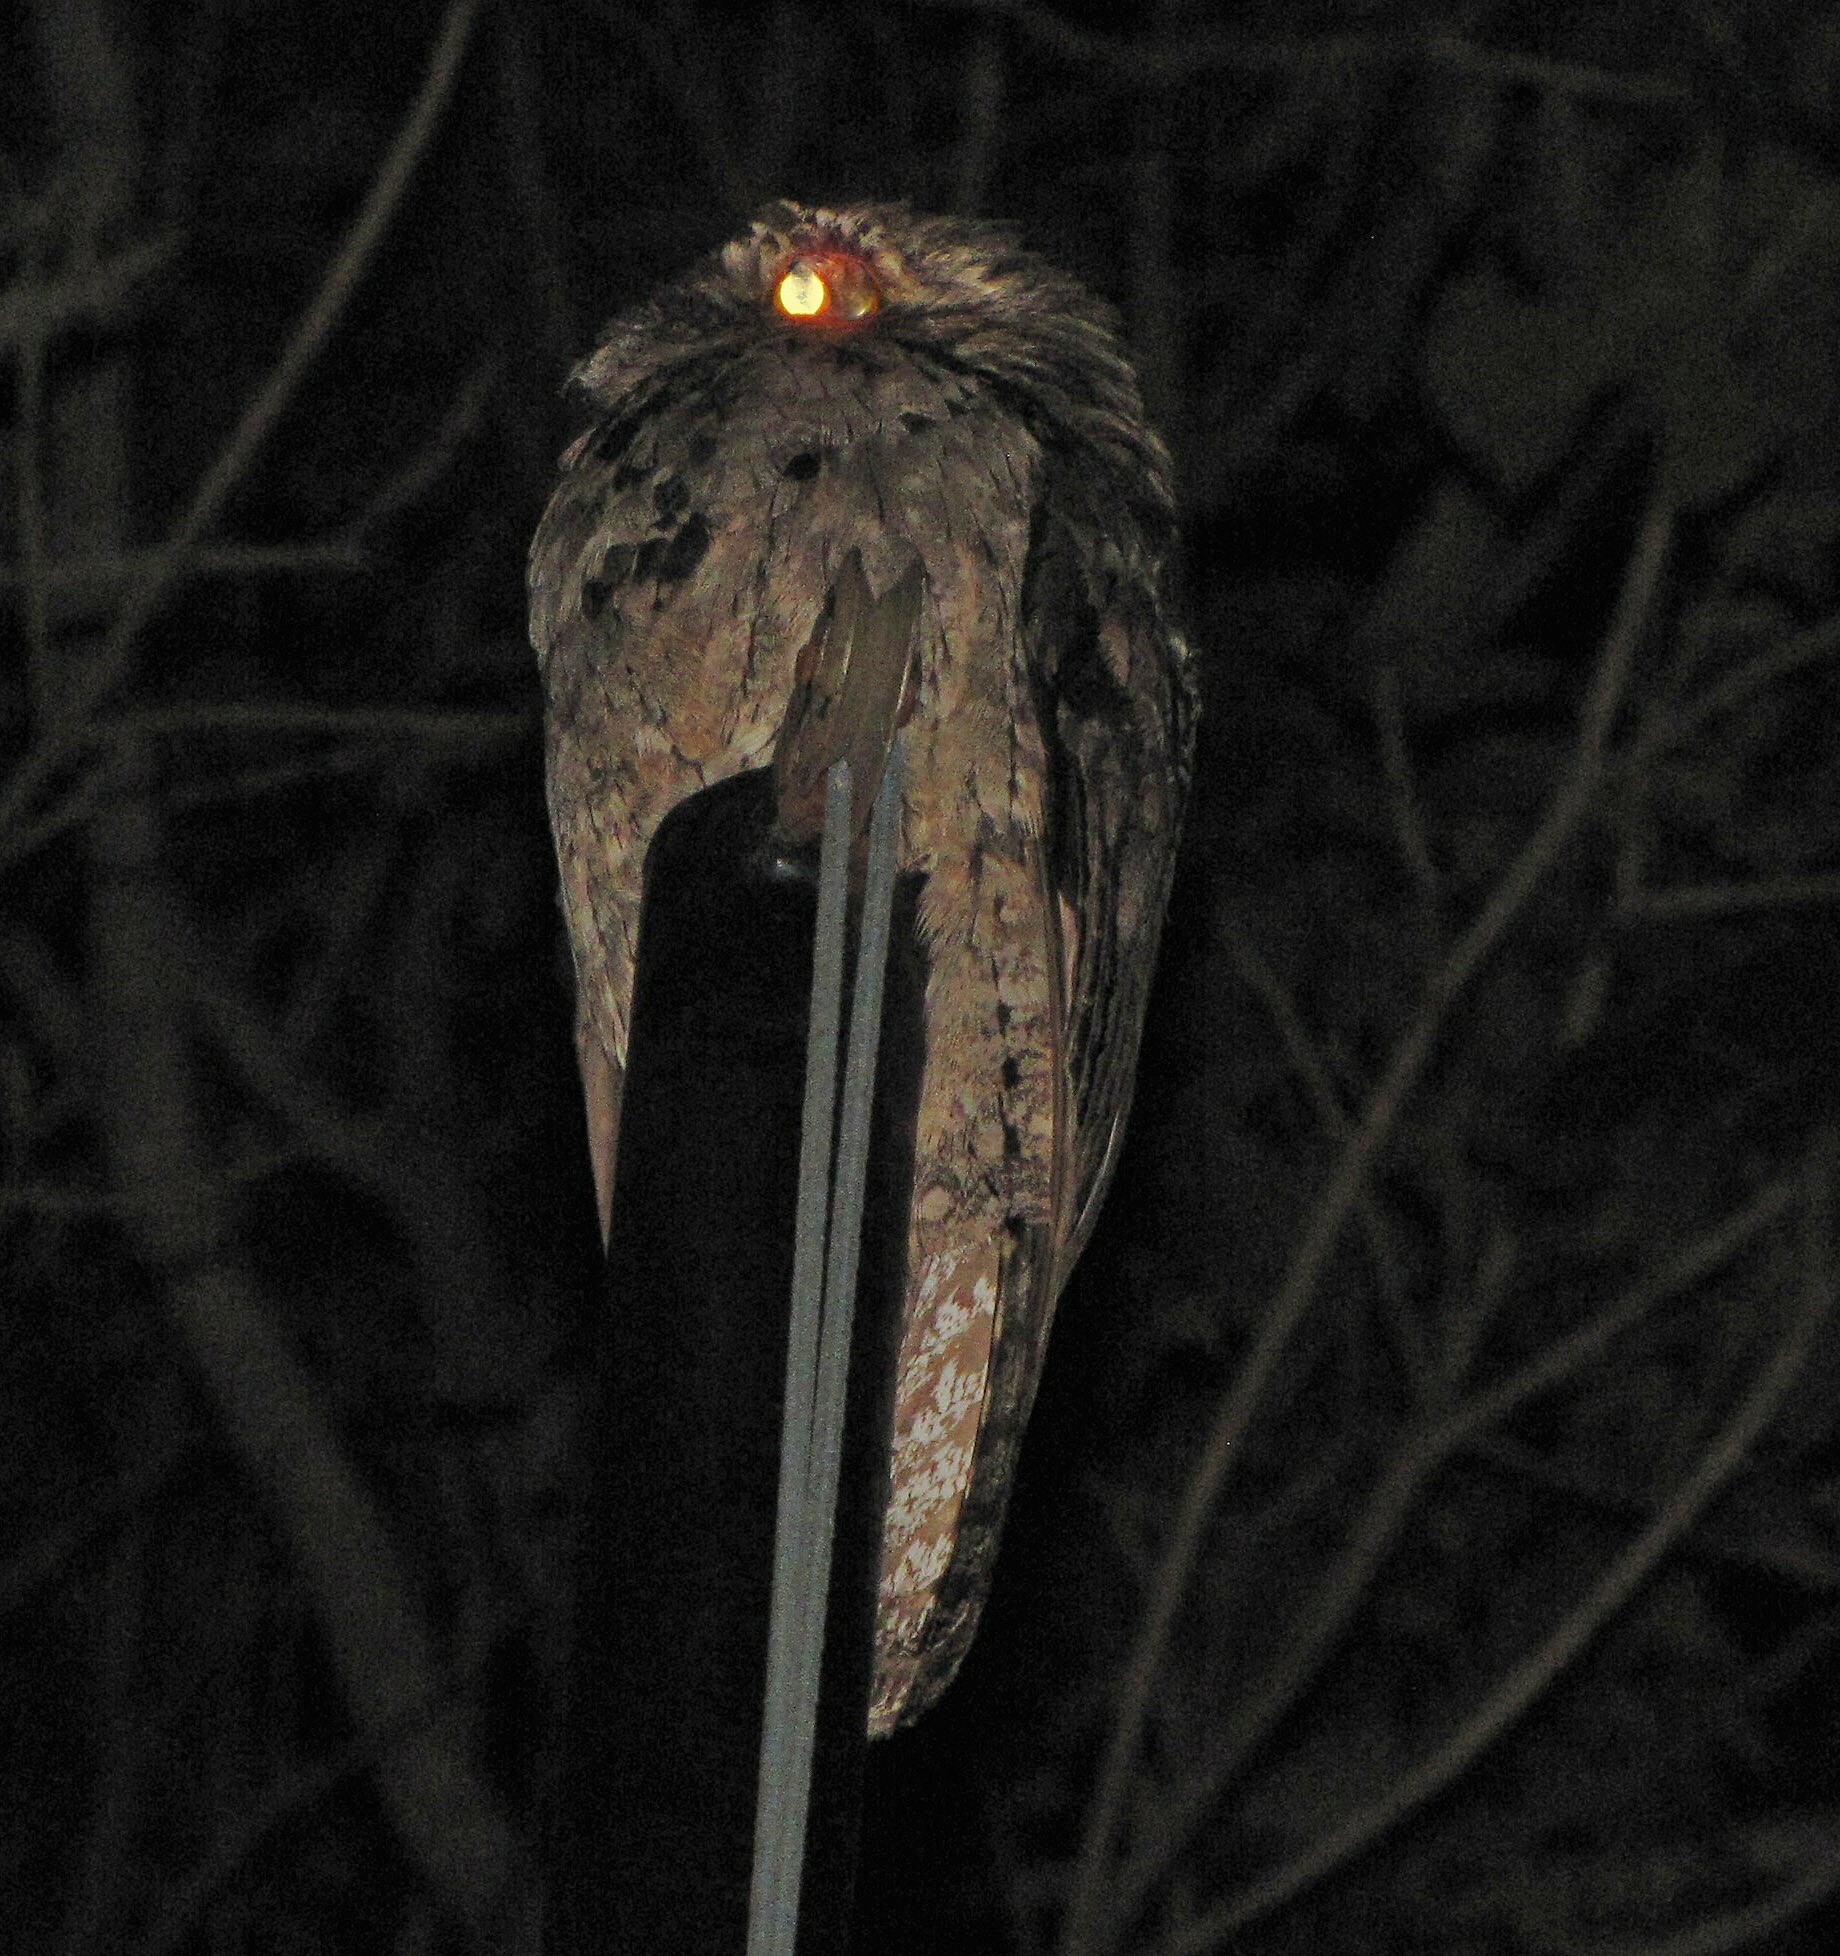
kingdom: Animalia
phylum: Chordata
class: Aves
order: Nyctibiiformes
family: Nyctibiidae
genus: Nyctibius
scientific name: Nyctibius griseus
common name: Common potoo
